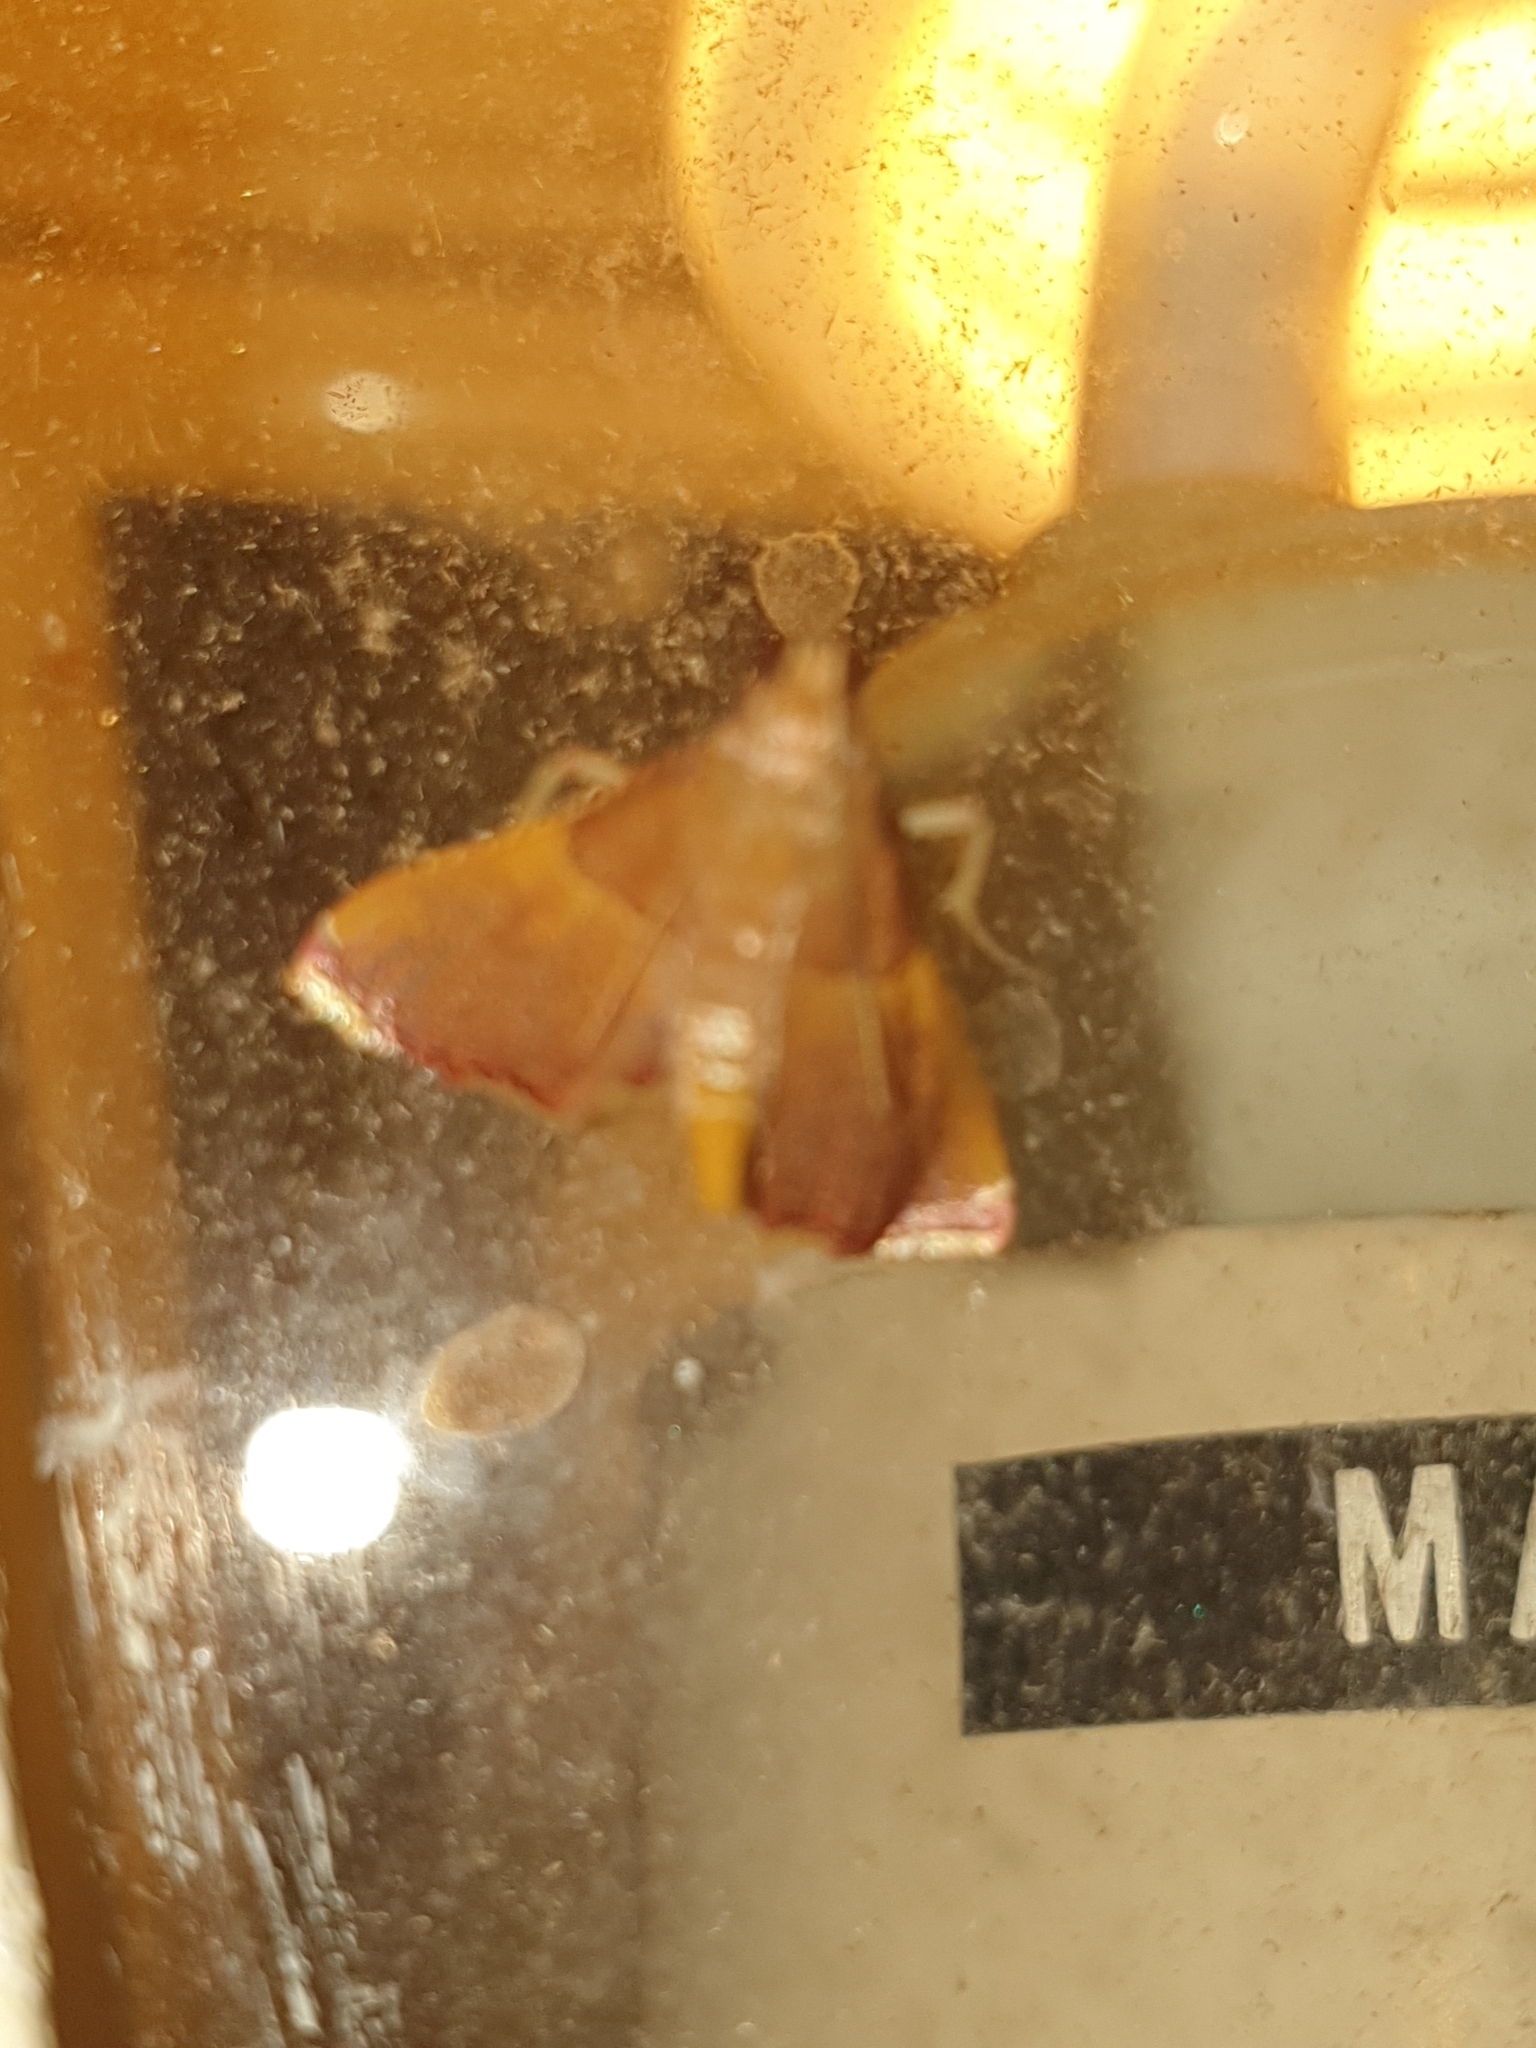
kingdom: Animalia
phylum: Arthropoda
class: Insecta
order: Lepidoptera
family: Pyralidae
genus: Endotricha
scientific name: Endotricha mesenterialis
